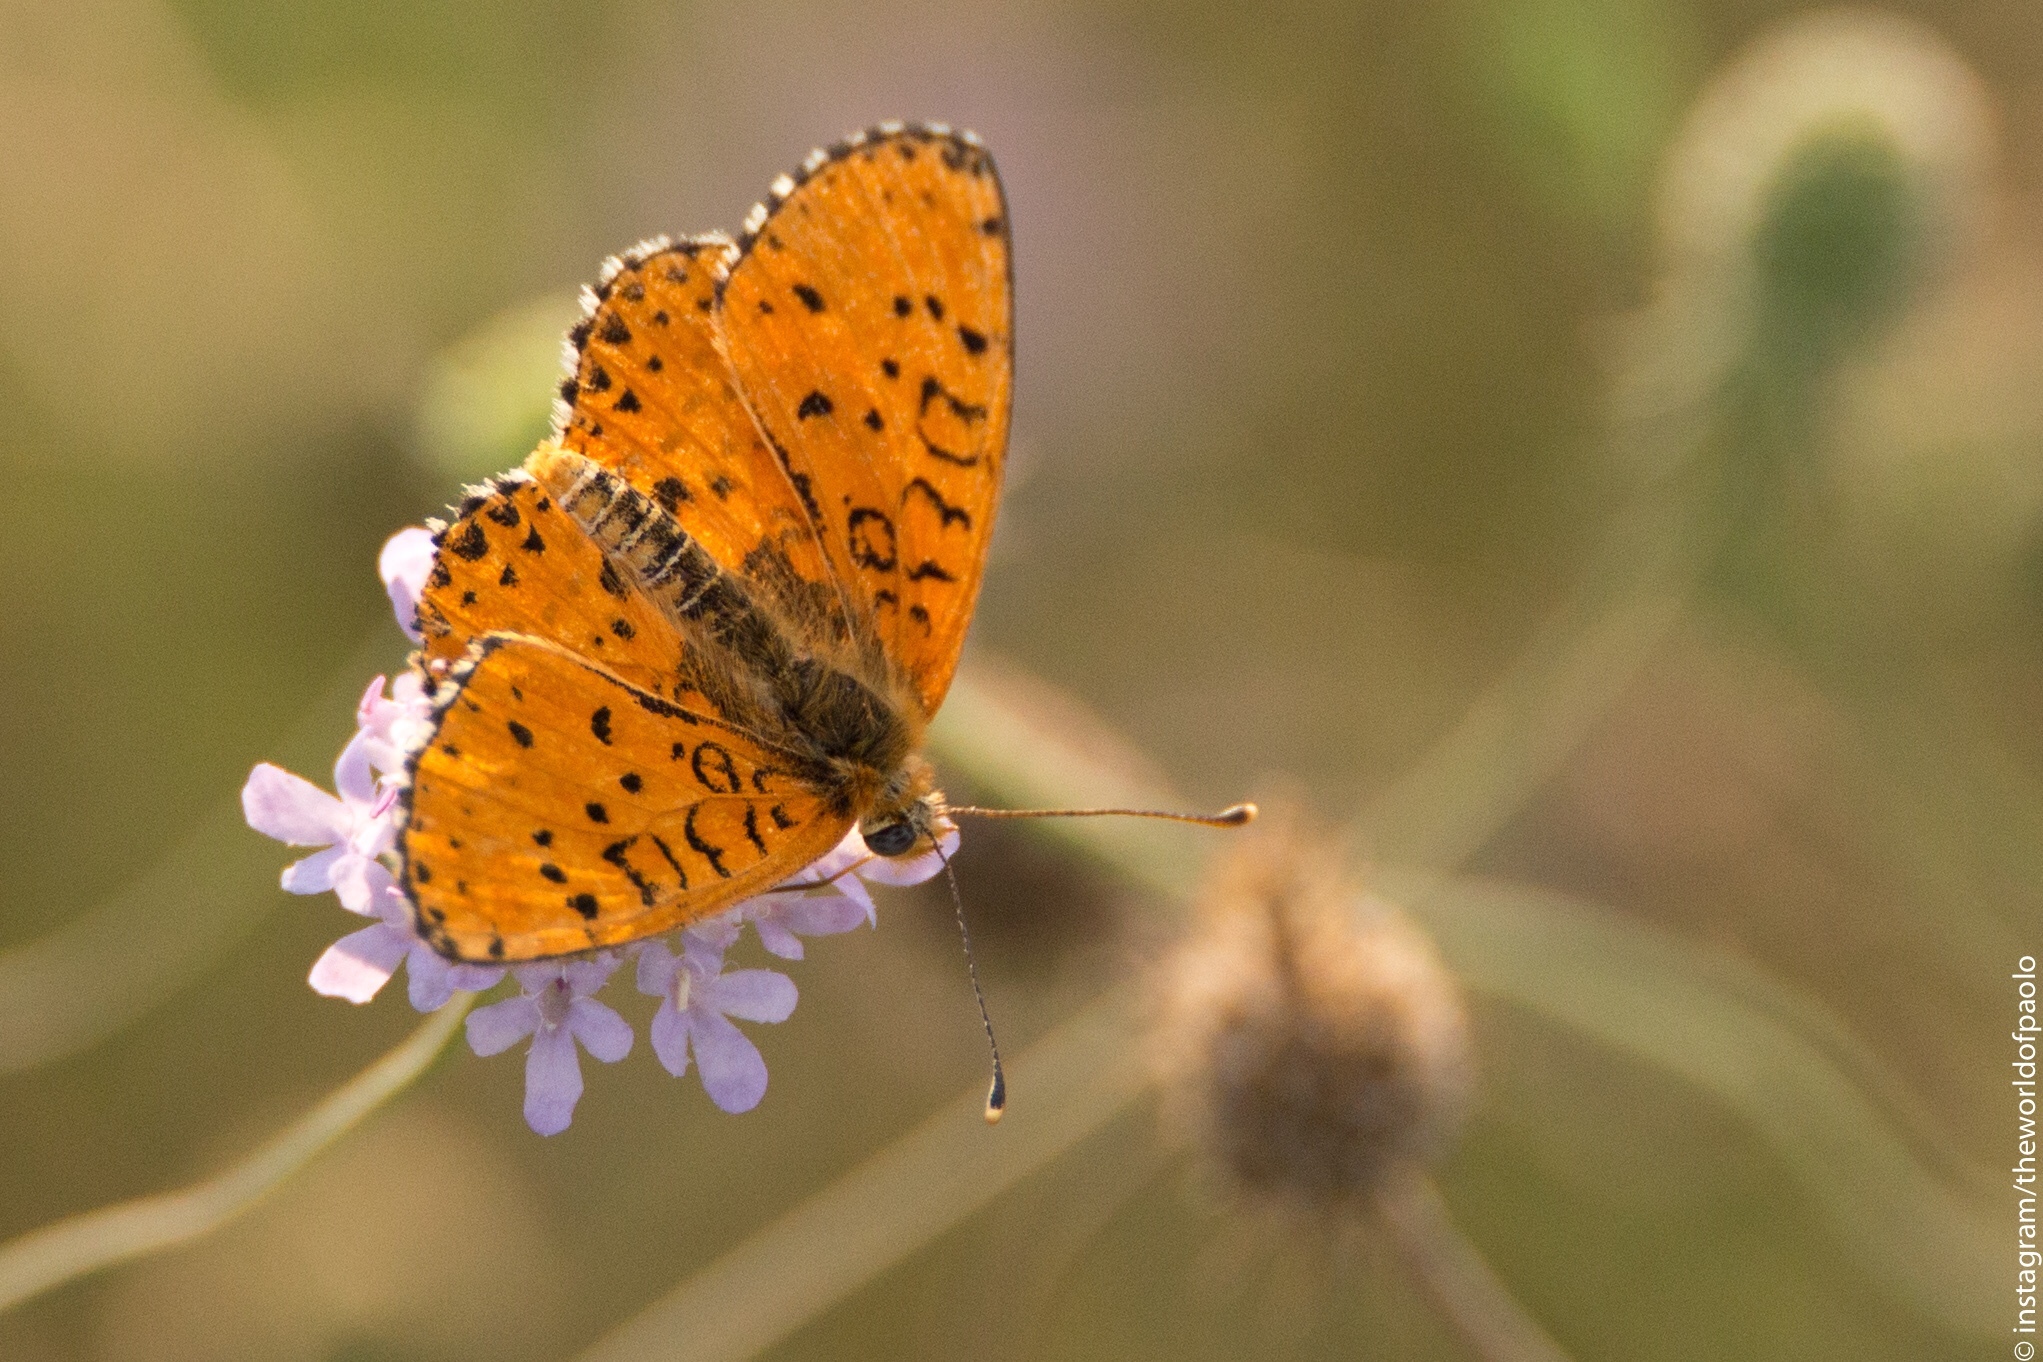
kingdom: Animalia
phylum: Arthropoda
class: Insecta
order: Lepidoptera
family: Nymphalidae
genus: Melitaea
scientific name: Melitaea didyma
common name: Spotted fritillary
